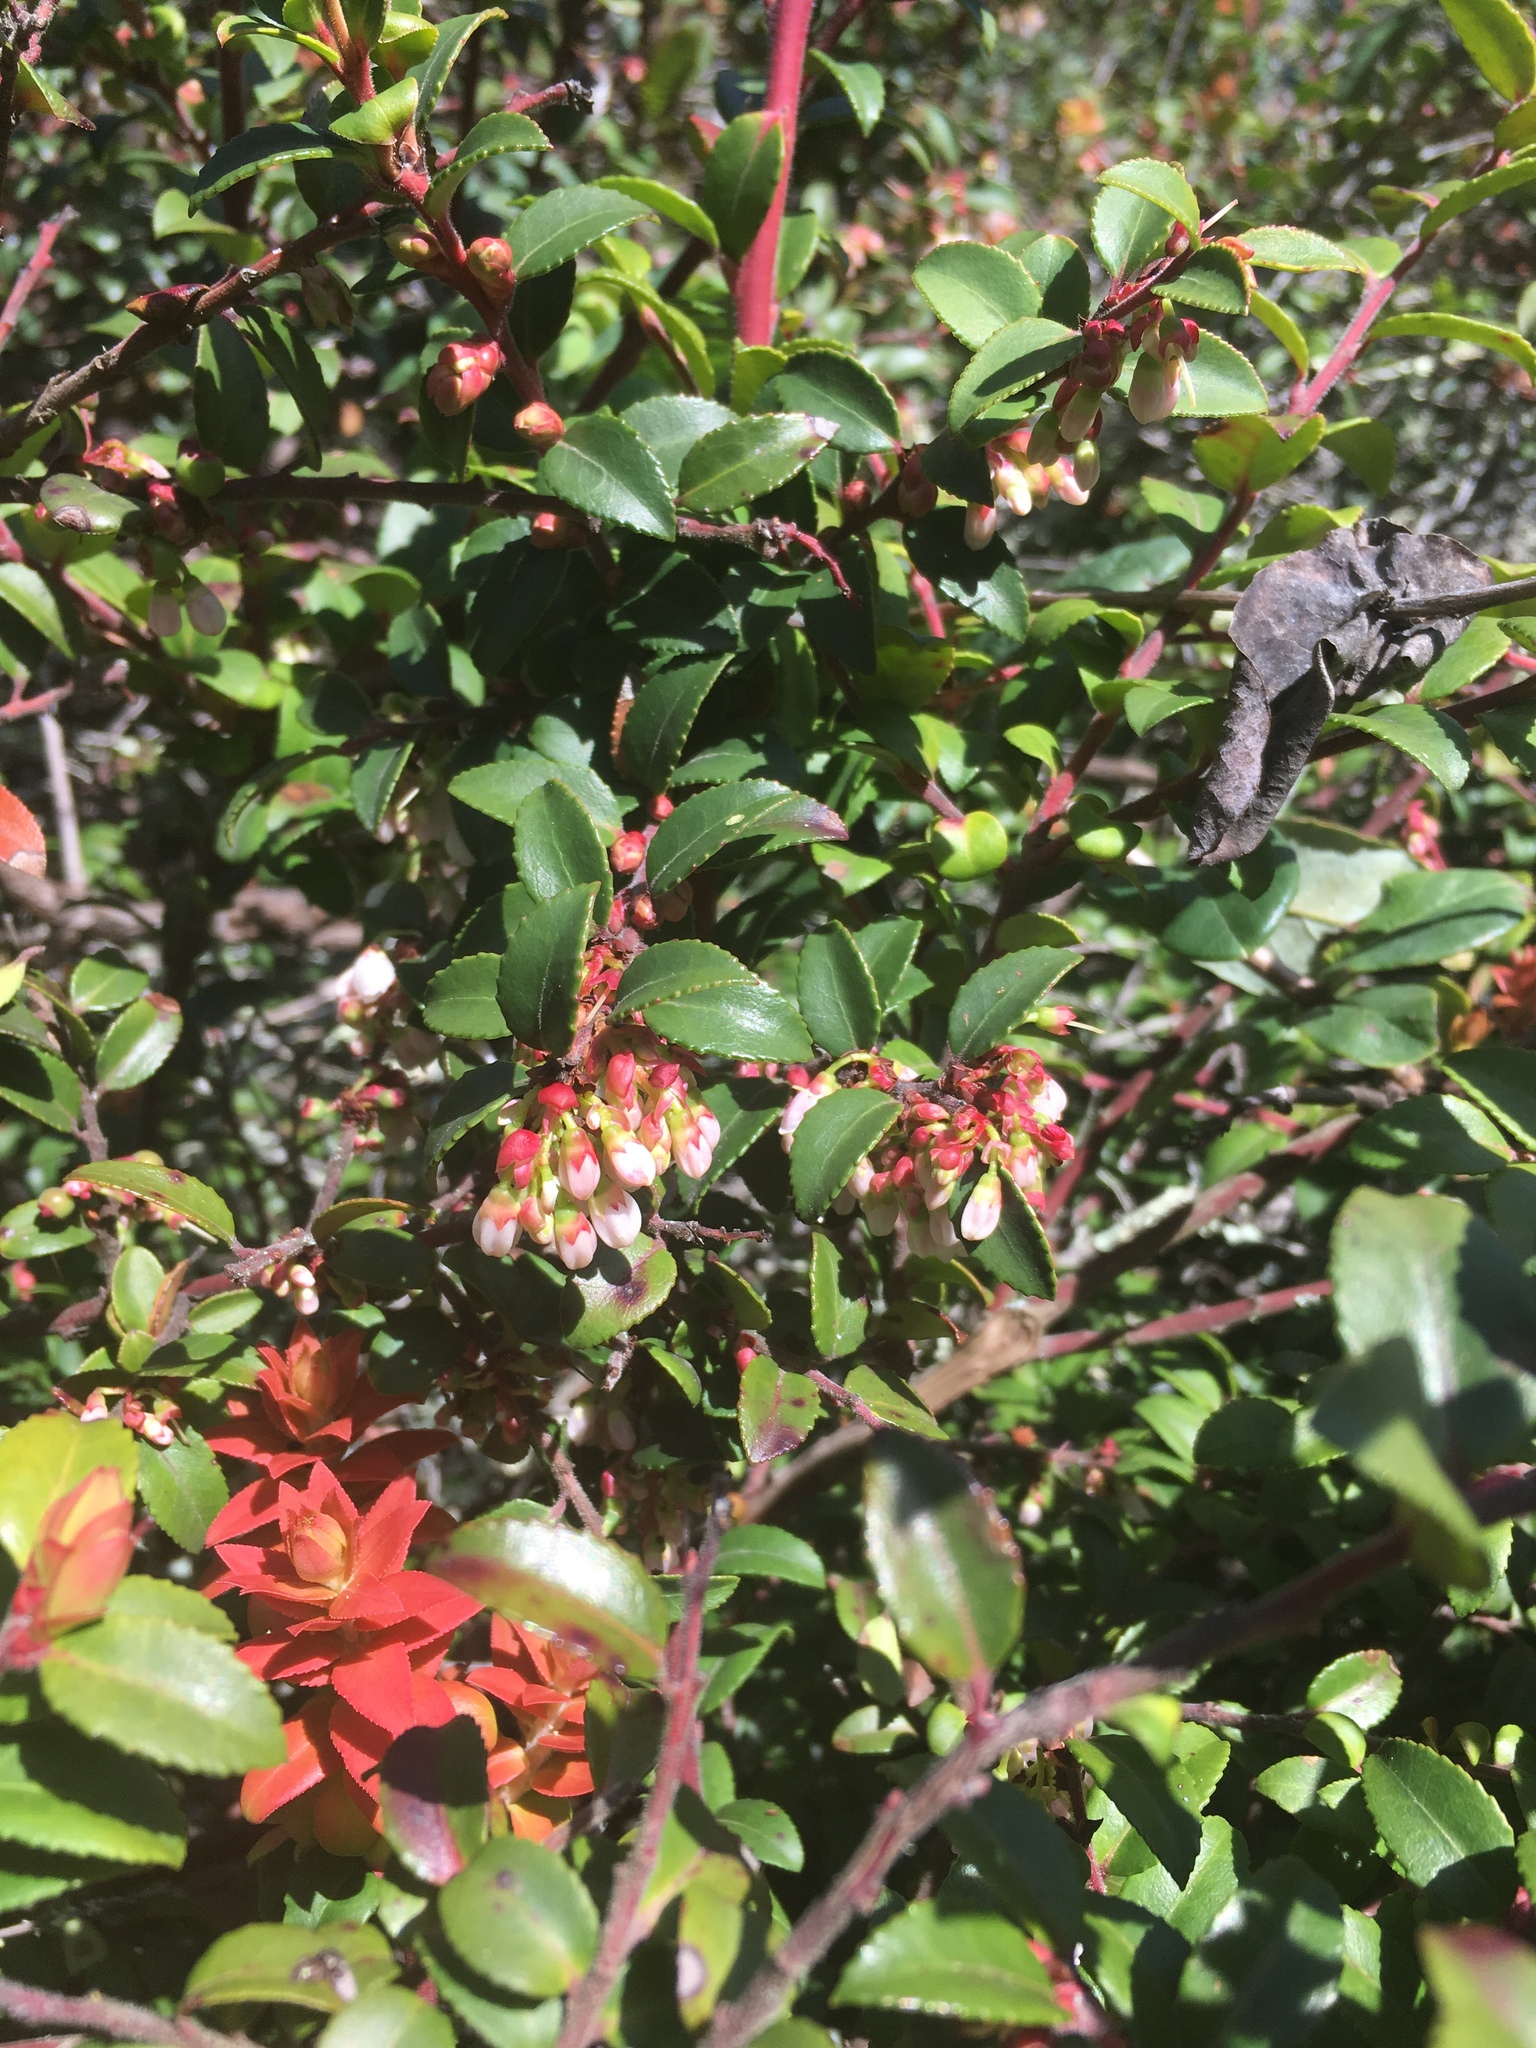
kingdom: Plantae
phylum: Tracheophyta
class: Magnoliopsida
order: Ericales
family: Ericaceae
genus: Vaccinium
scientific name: Vaccinium ovatum
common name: California-huckleberry
